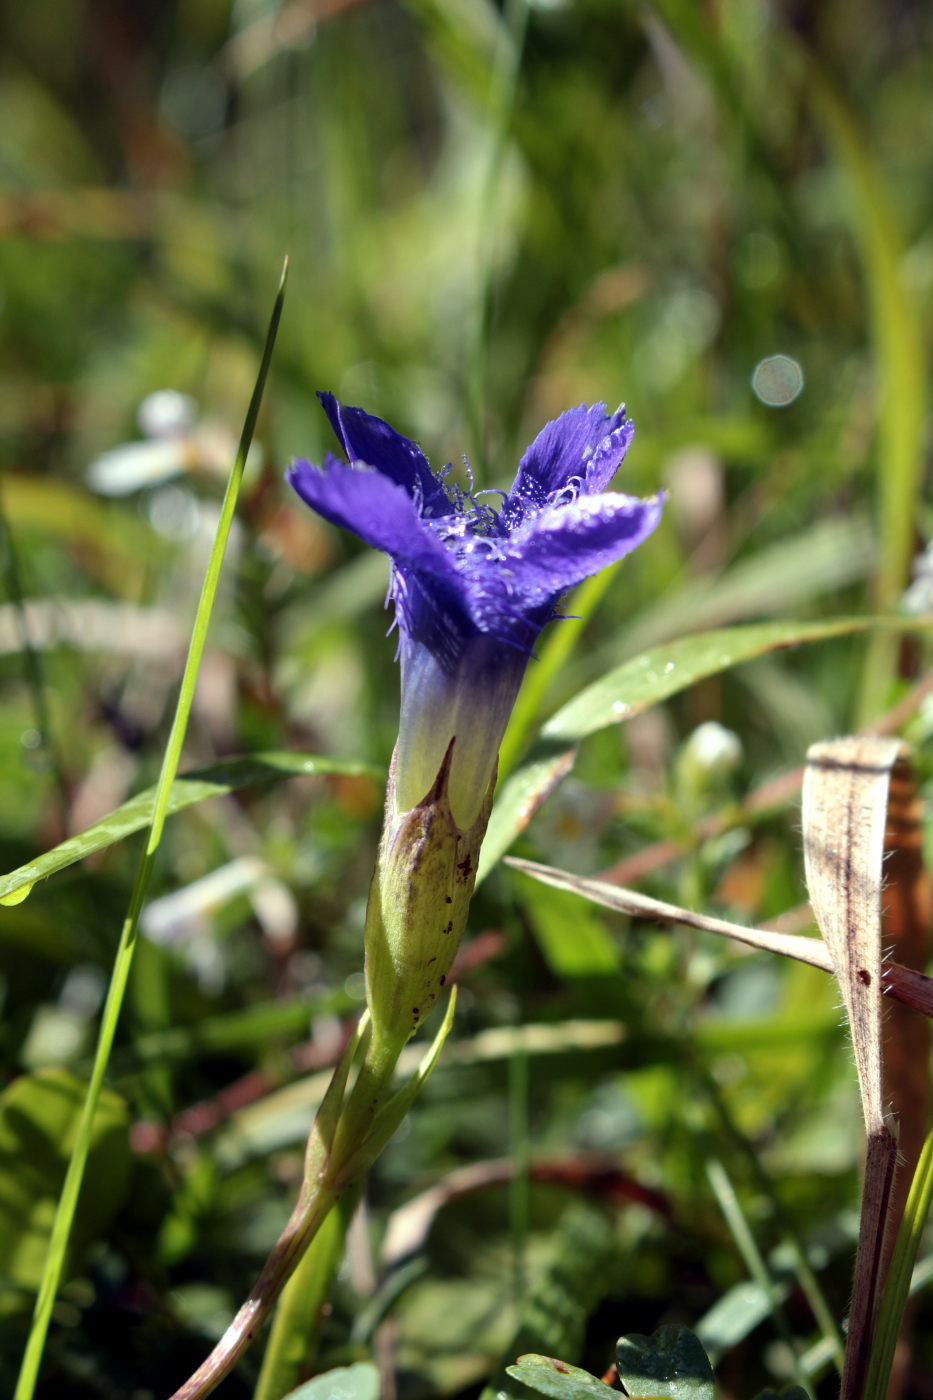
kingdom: Plantae
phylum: Tracheophyta
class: Magnoliopsida
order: Gentianales
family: Gentianaceae
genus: Gentianopsis
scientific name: Gentianopsis ciliata
